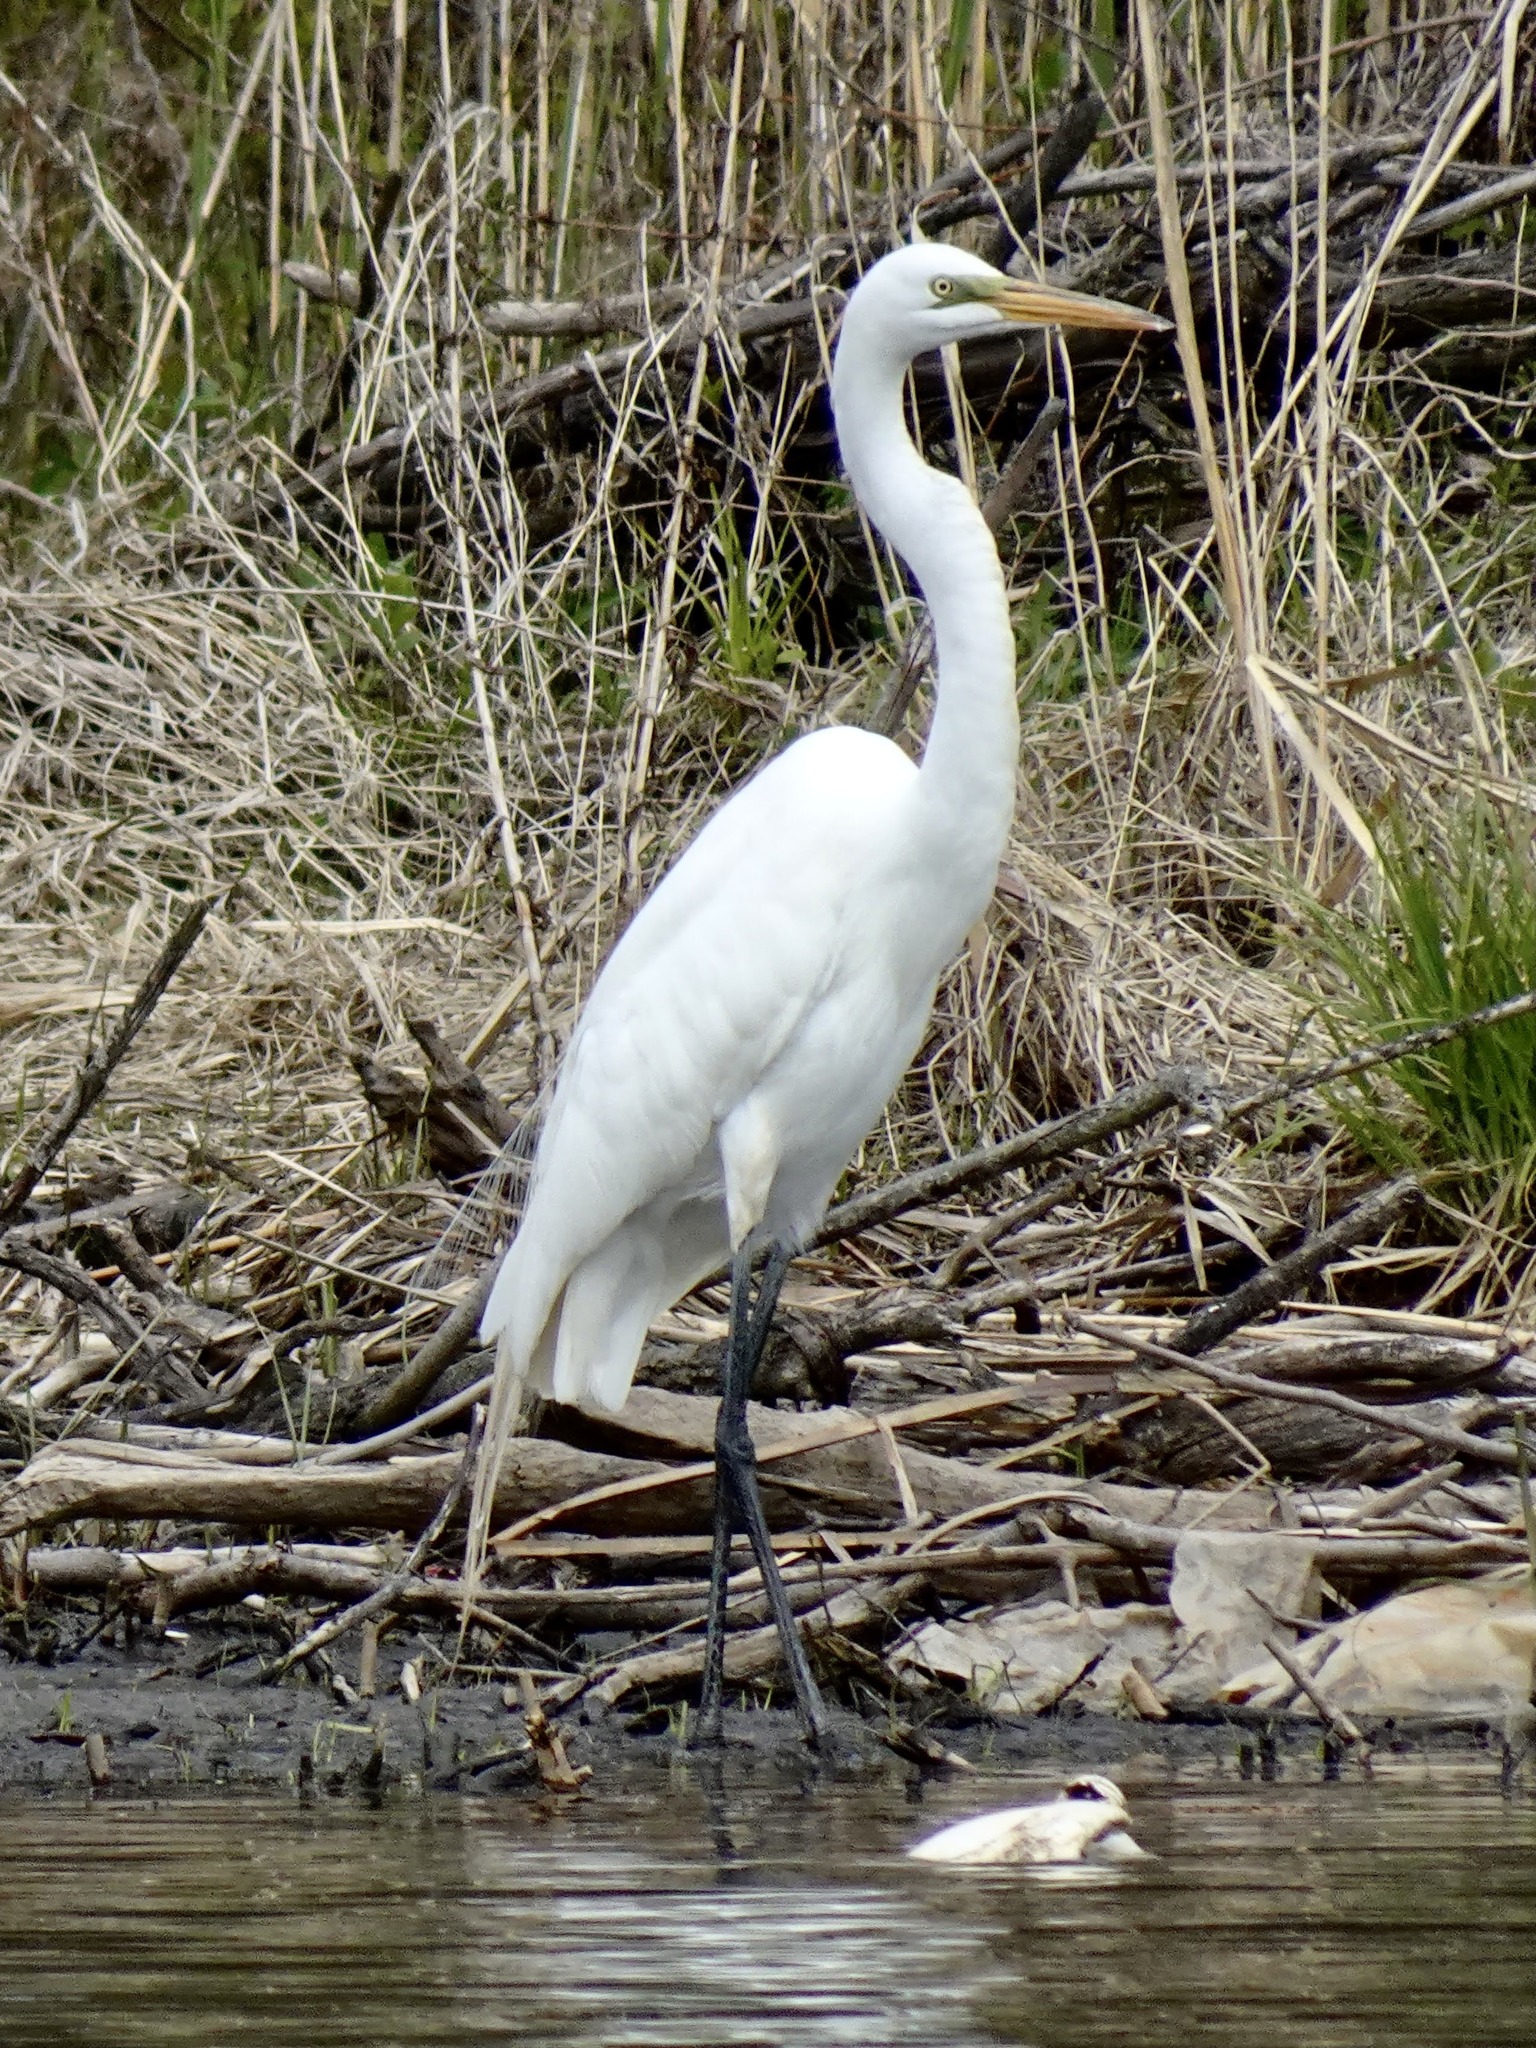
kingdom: Animalia
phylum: Chordata
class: Aves
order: Pelecaniformes
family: Ardeidae
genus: Ardea
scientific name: Ardea alba
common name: Great egret
